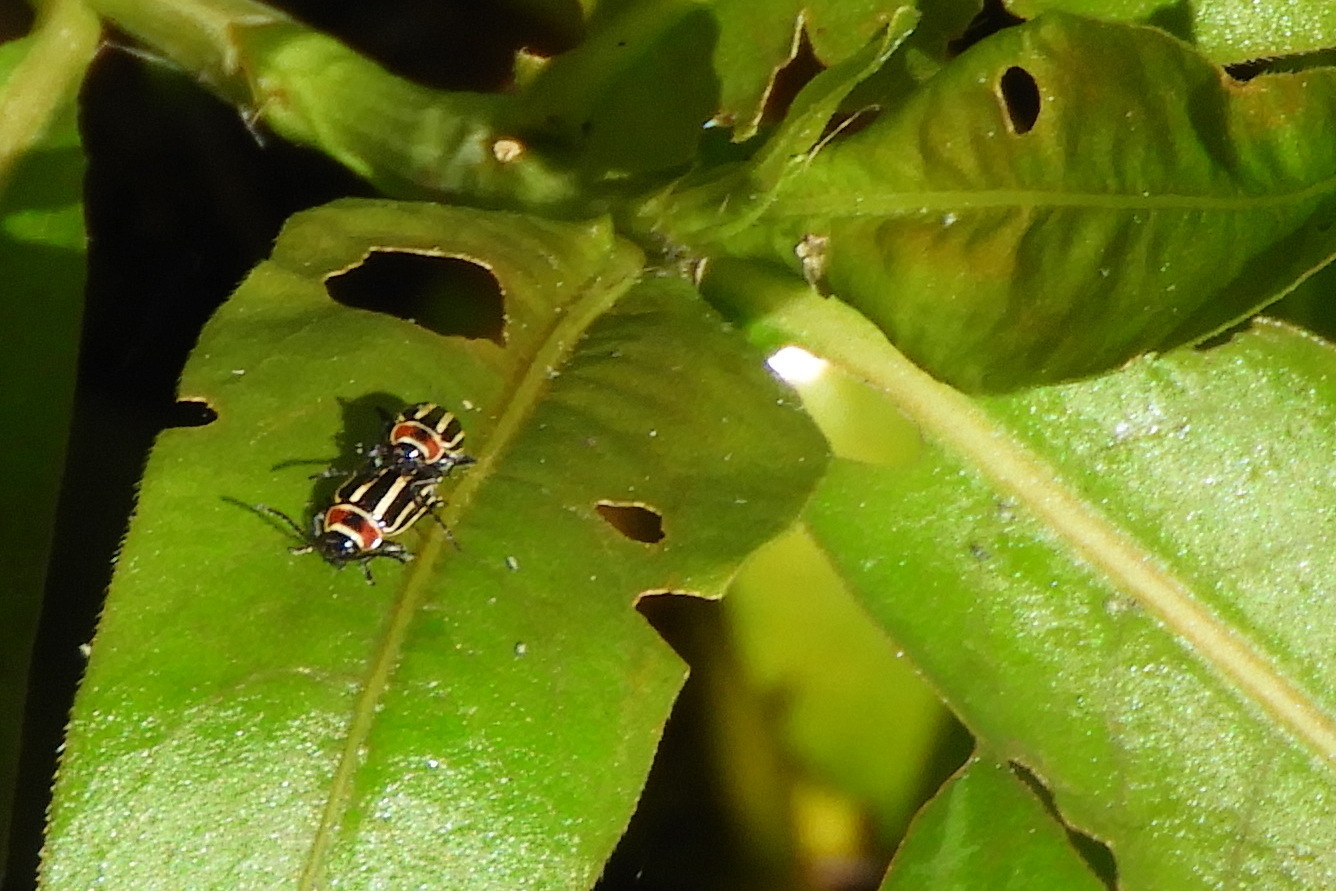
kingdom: Animalia
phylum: Arthropoda
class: Insecta
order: Coleoptera
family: Chrysomelidae
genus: Disonycha
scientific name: Disonycha pensylvanica
